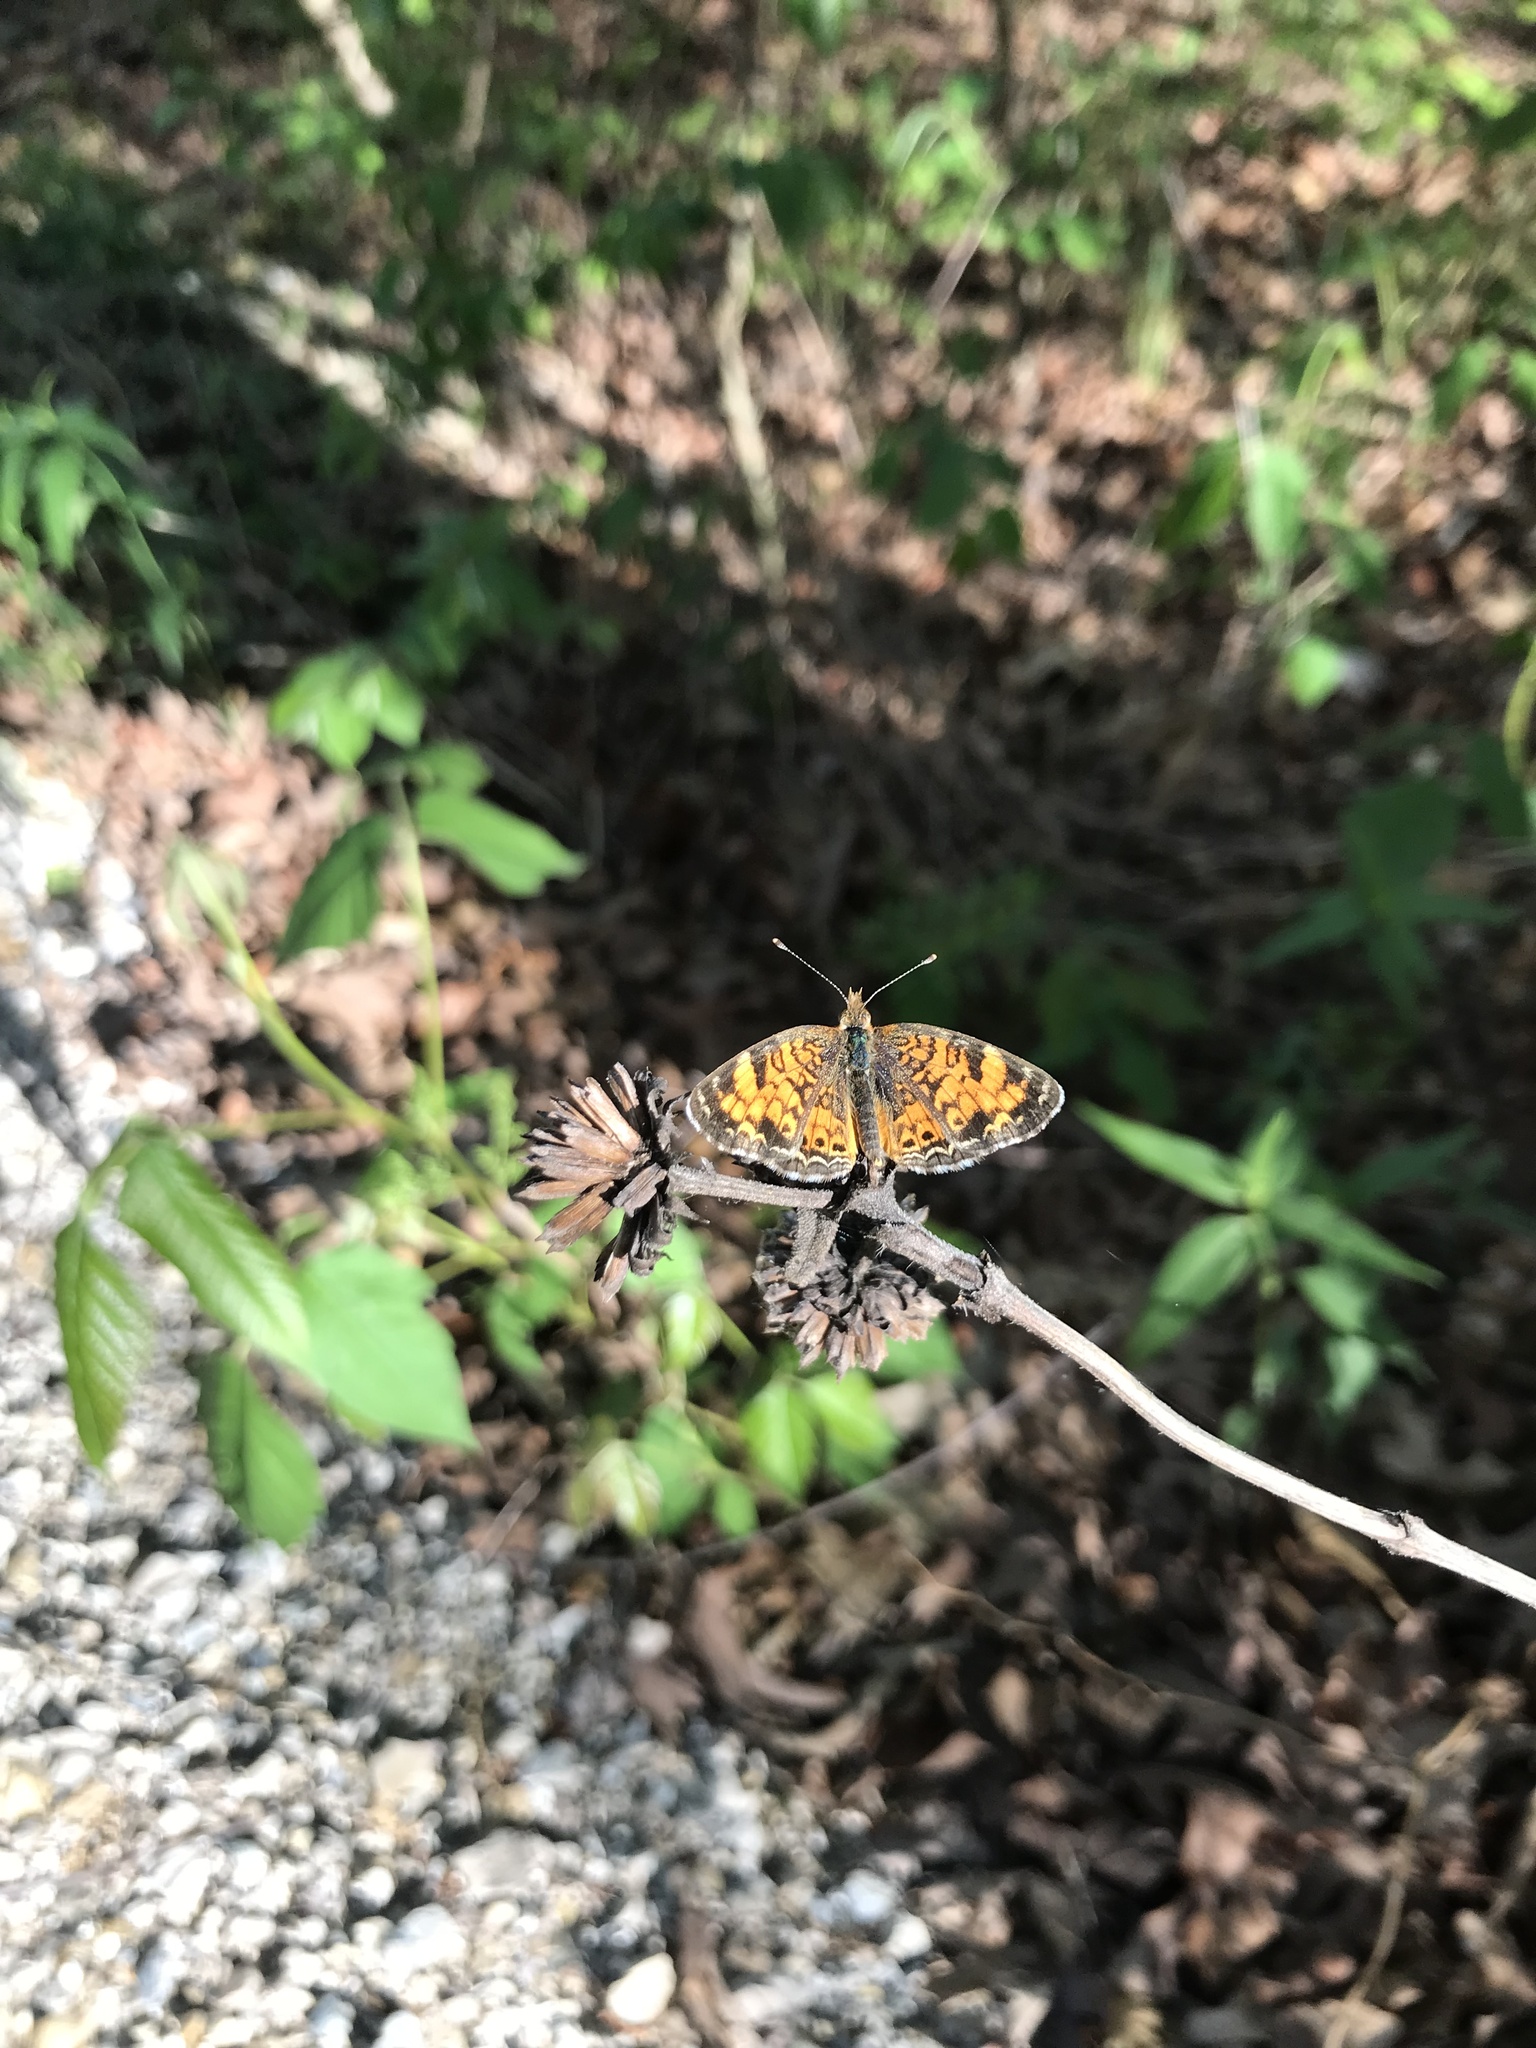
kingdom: Animalia
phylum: Arthropoda
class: Insecta
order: Lepidoptera
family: Nymphalidae
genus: Phyciodes
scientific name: Phyciodes tharos
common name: Pearl crescent
